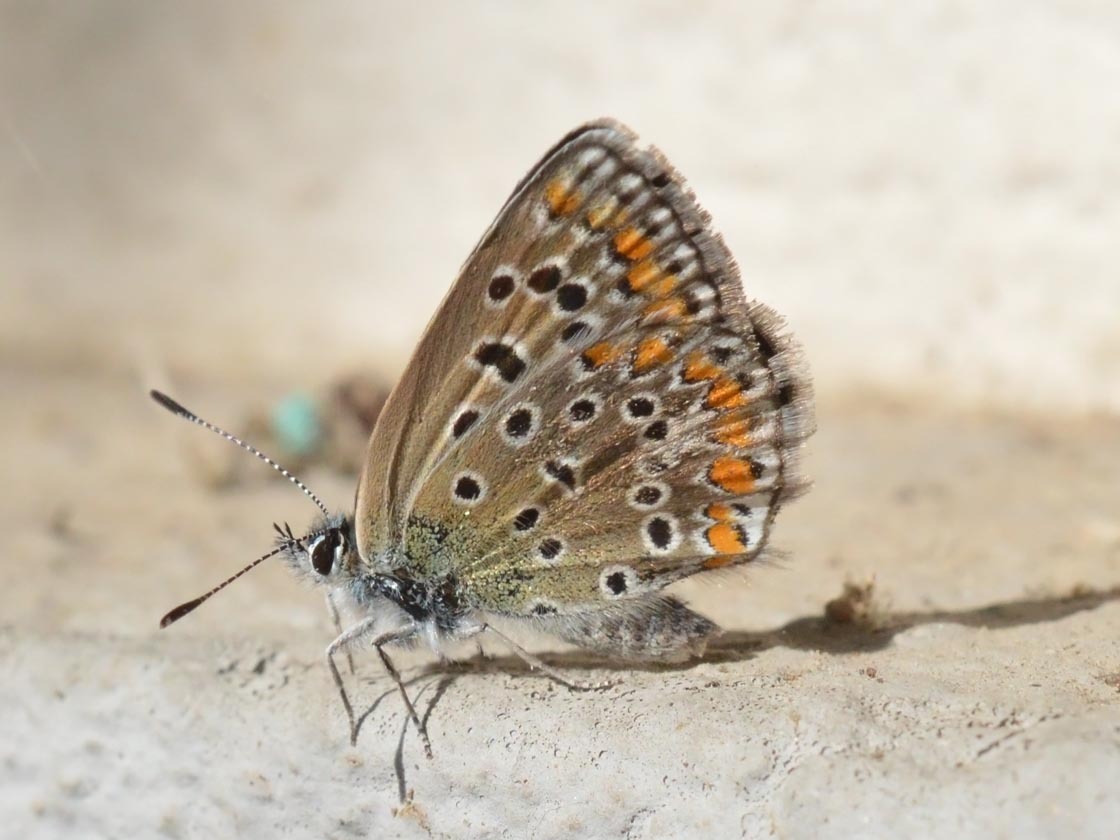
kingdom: Animalia
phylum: Arthropoda
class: Insecta
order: Lepidoptera
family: Lycaenidae
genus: Polyommatus
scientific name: Polyommatus icarus
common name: Common blue
